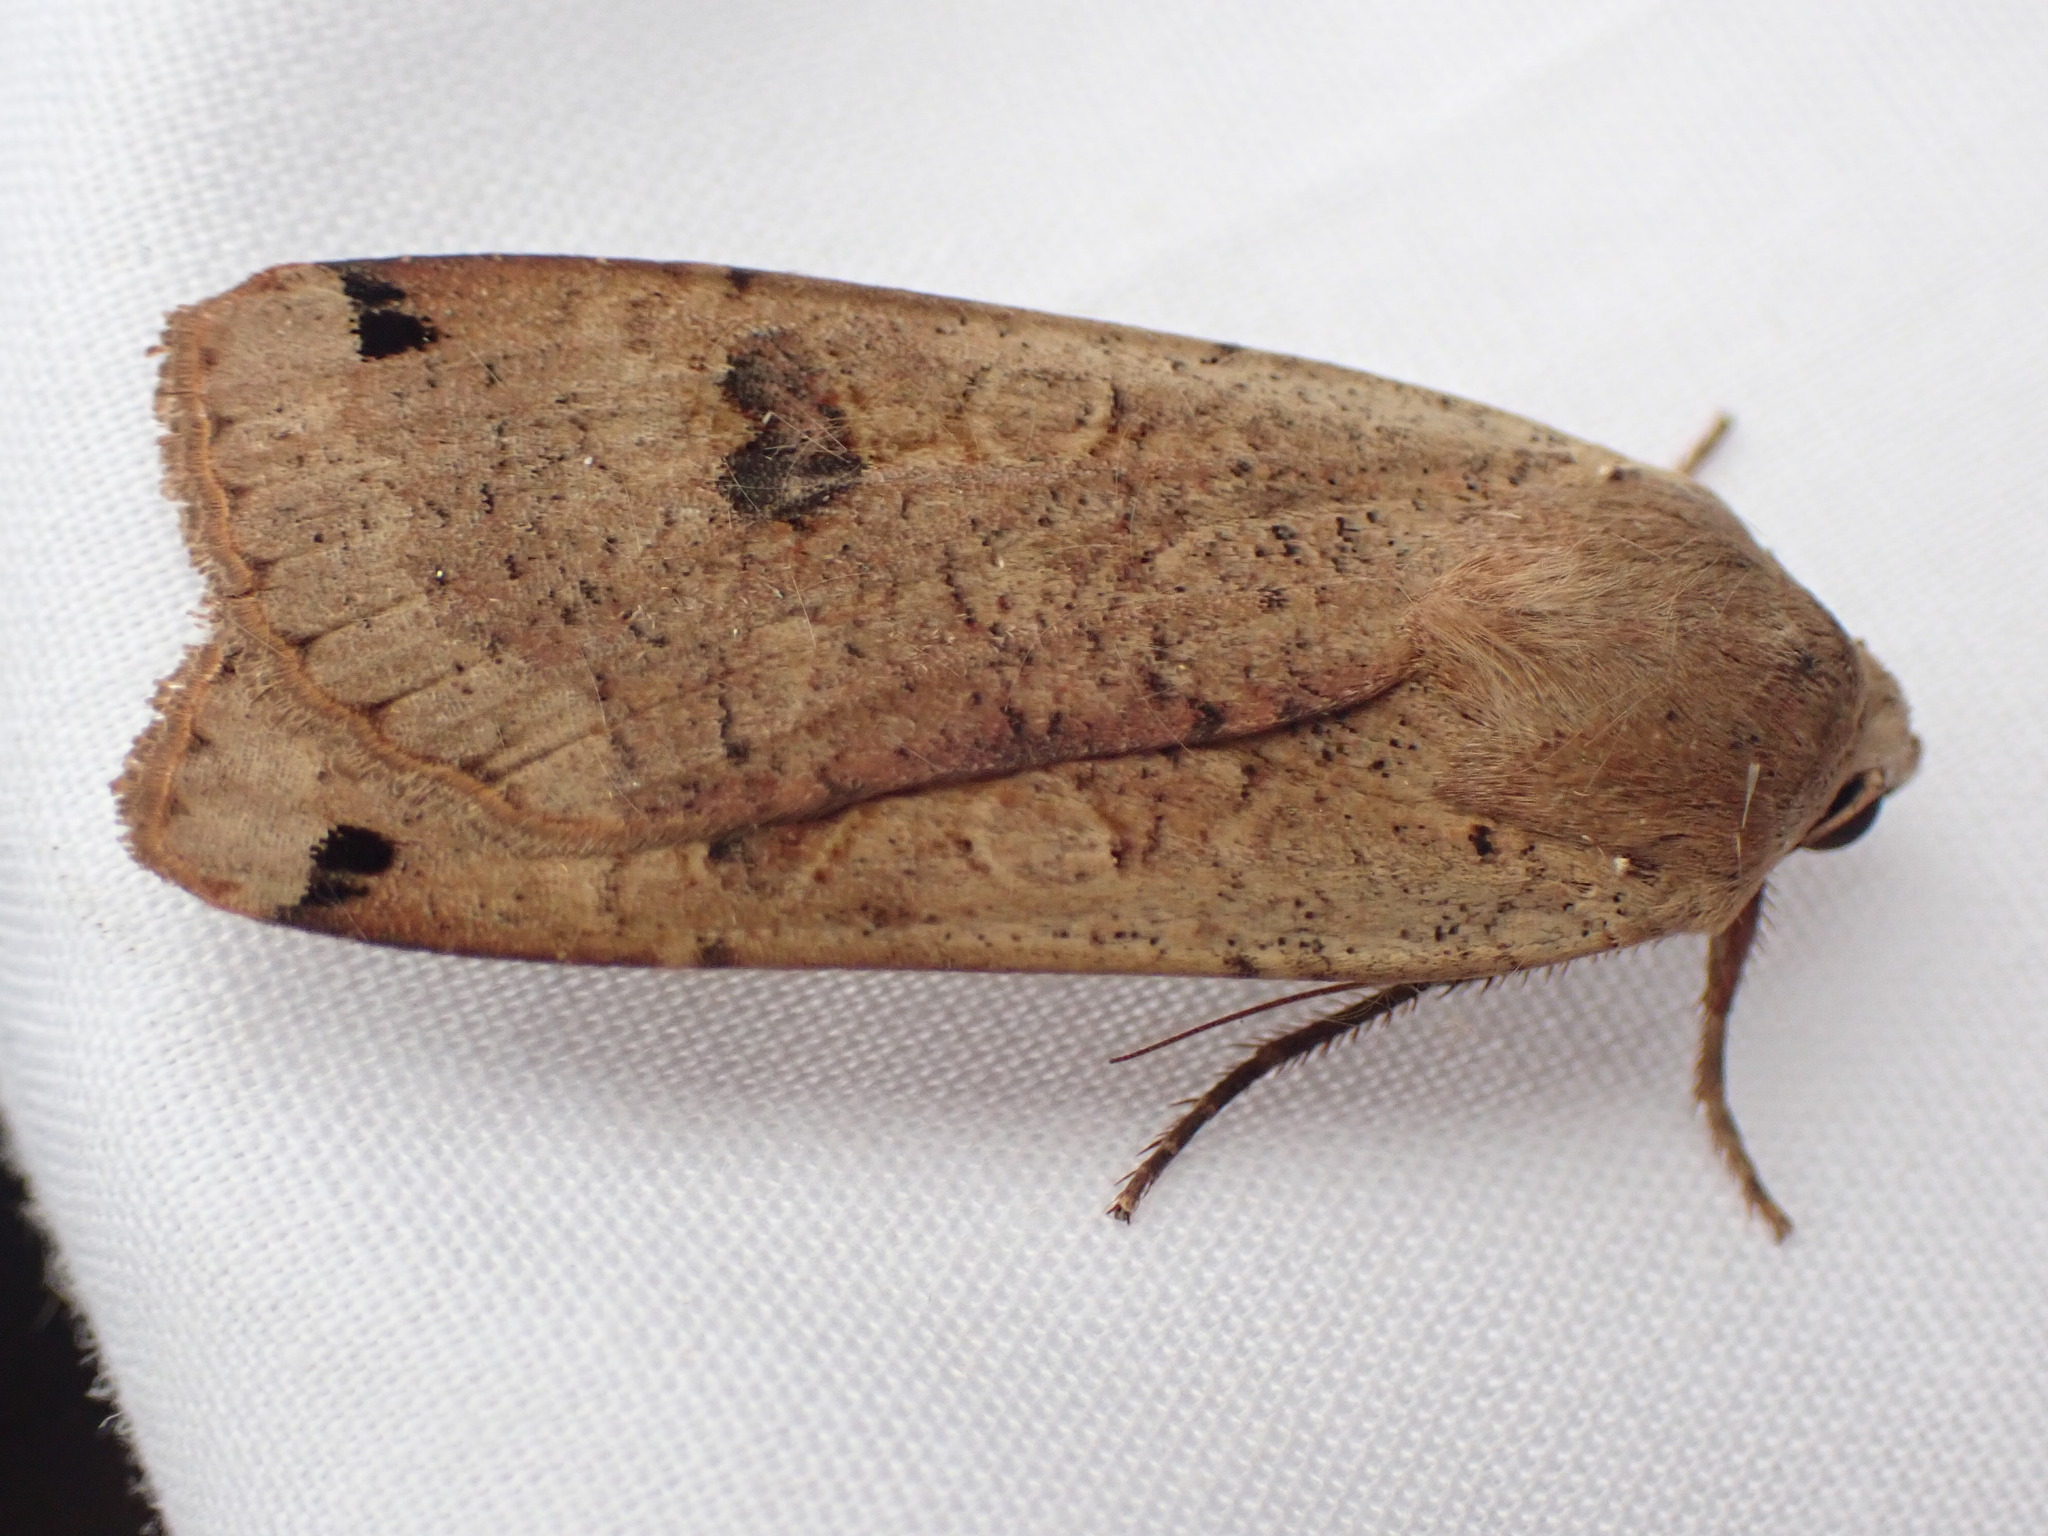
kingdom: Animalia
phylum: Arthropoda
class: Insecta
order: Lepidoptera
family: Noctuidae
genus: Noctua
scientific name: Noctua pronuba
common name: Large yellow underwing
